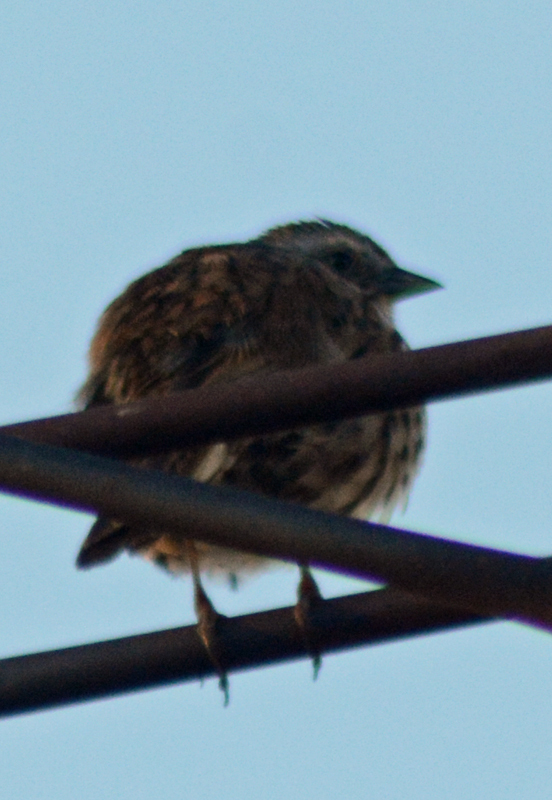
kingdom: Animalia
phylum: Chordata
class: Aves
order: Passeriformes
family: Passerellidae
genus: Melospiza
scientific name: Melospiza melodia
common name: Song sparrow
